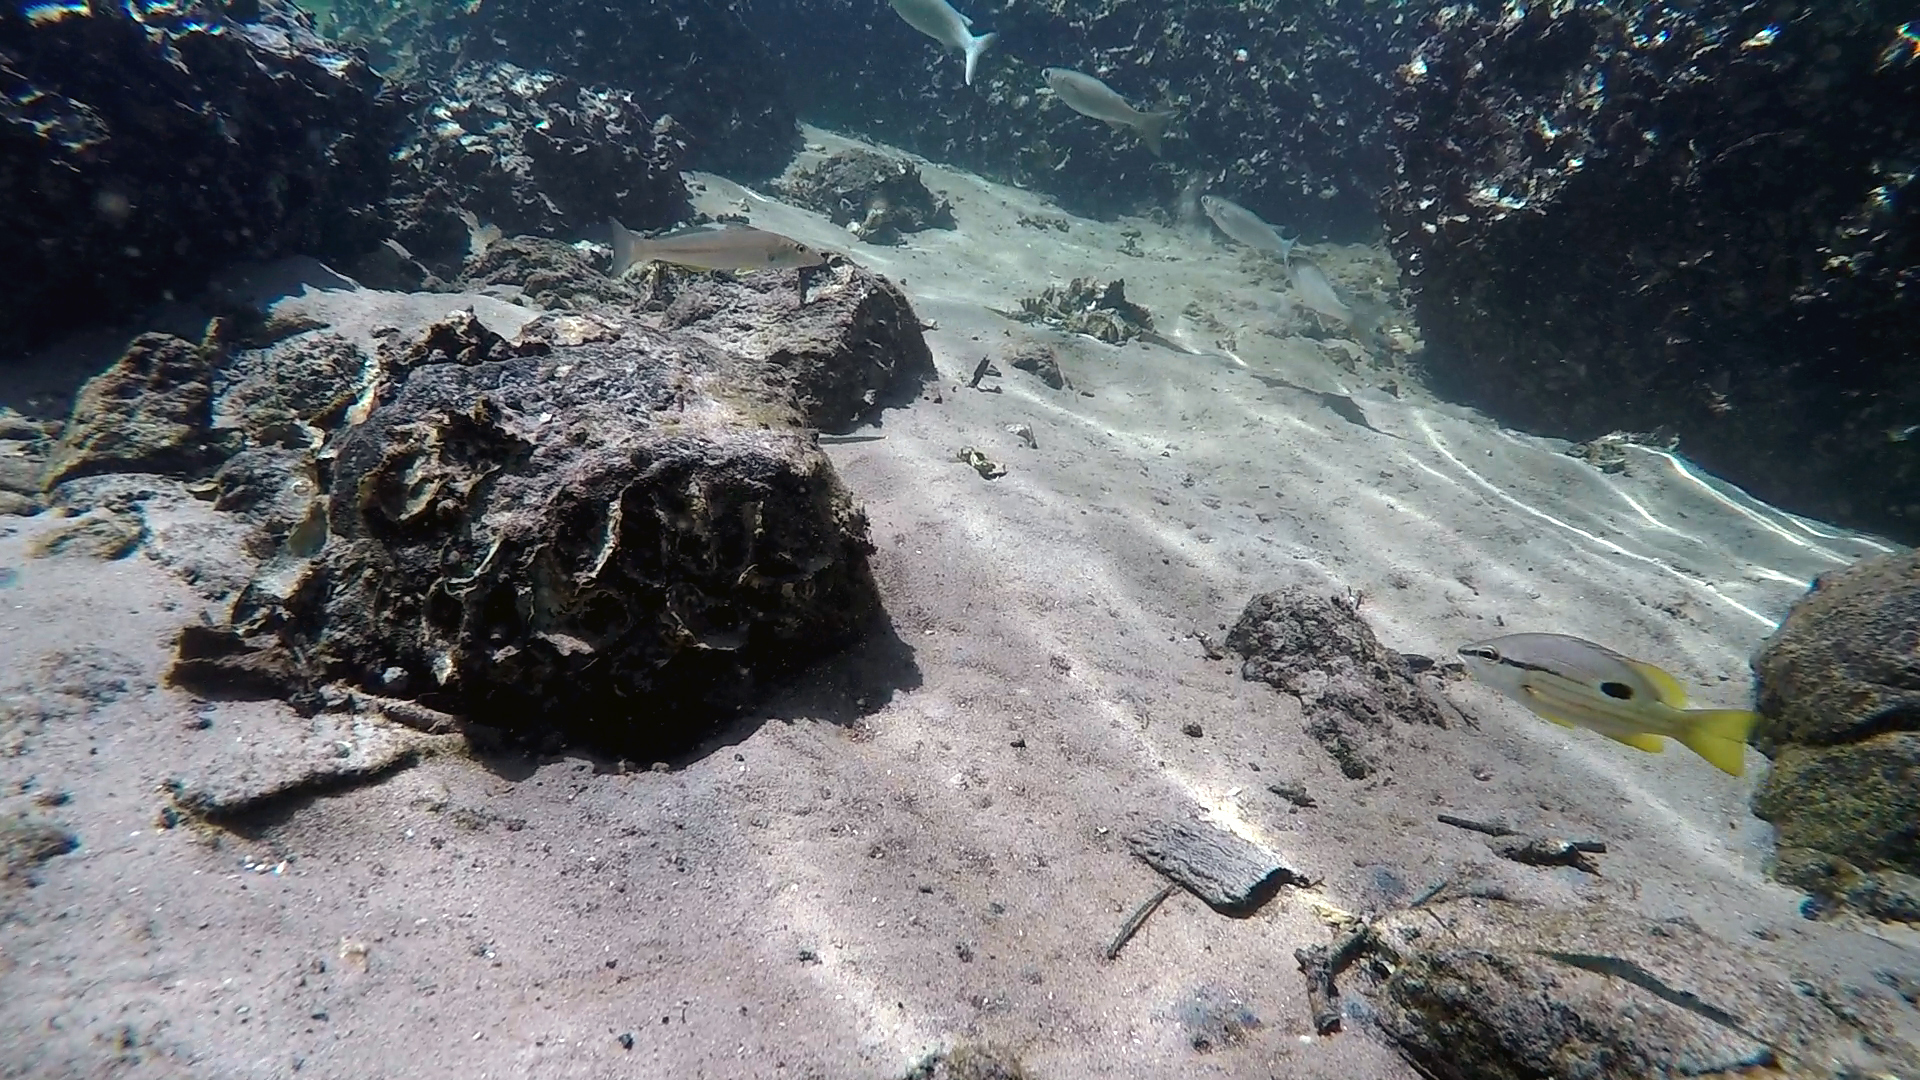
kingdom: Animalia
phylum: Chordata
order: Perciformes
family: Lutjanidae
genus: Lutjanus
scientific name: Lutjanus fulviflamma
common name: Blackspot snapper
